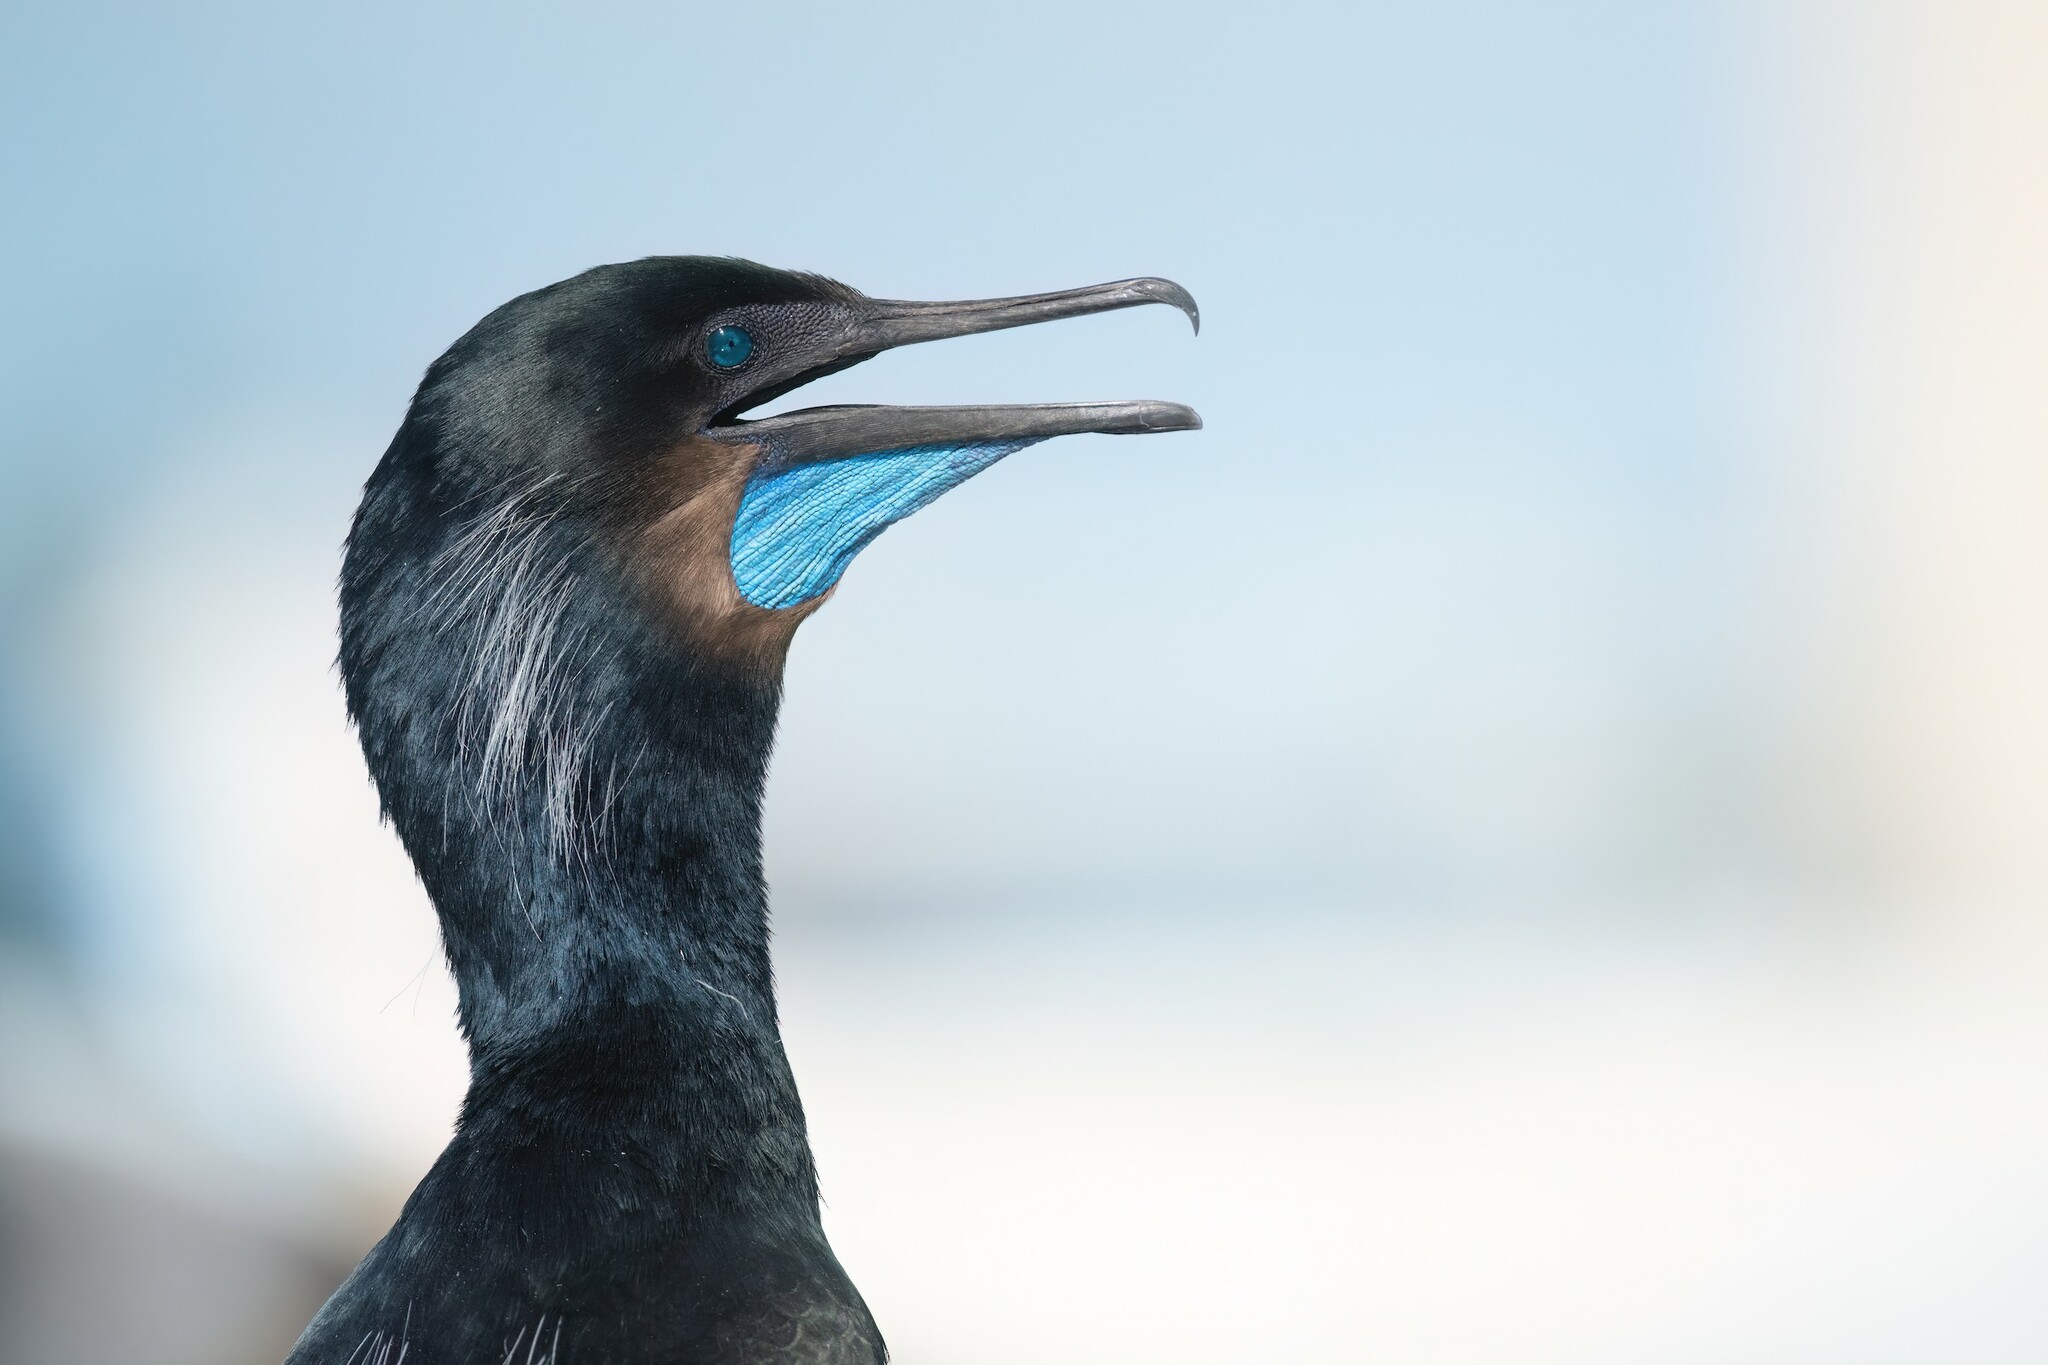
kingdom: Animalia
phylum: Chordata
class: Aves
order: Suliformes
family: Phalacrocoracidae
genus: Urile
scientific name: Urile penicillatus
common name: Brandt's cormorant
